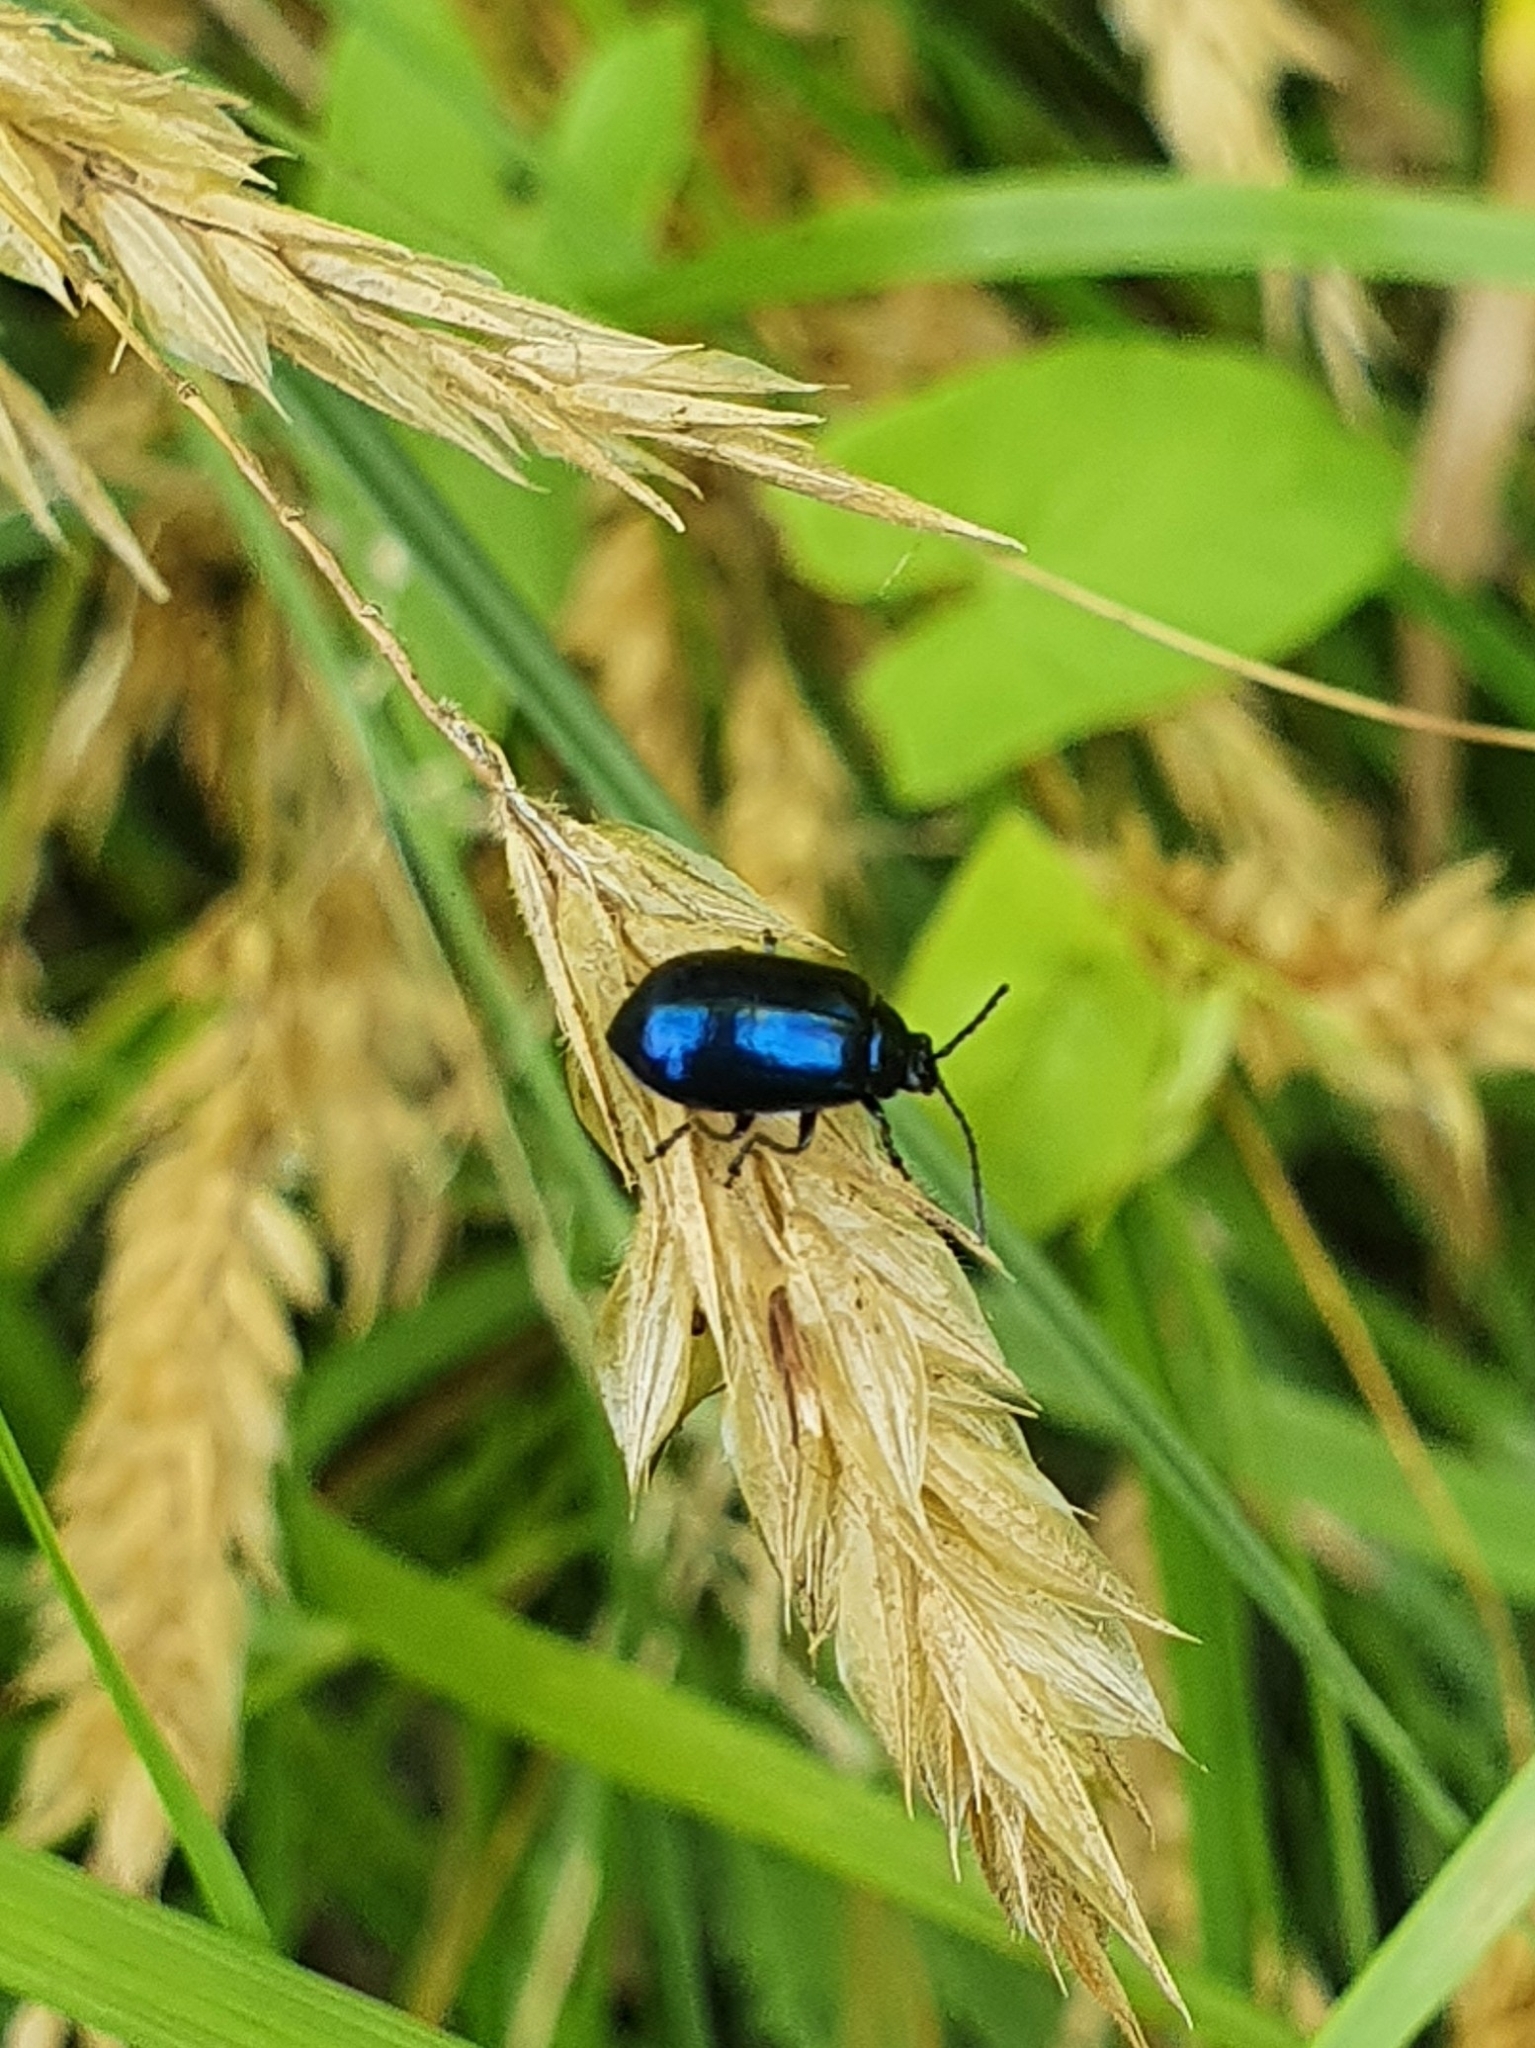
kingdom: Animalia
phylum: Arthropoda
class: Insecta
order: Coleoptera
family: Chrysomelidae
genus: Agelastica
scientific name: Agelastica alni
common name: Alder leaf beetle
